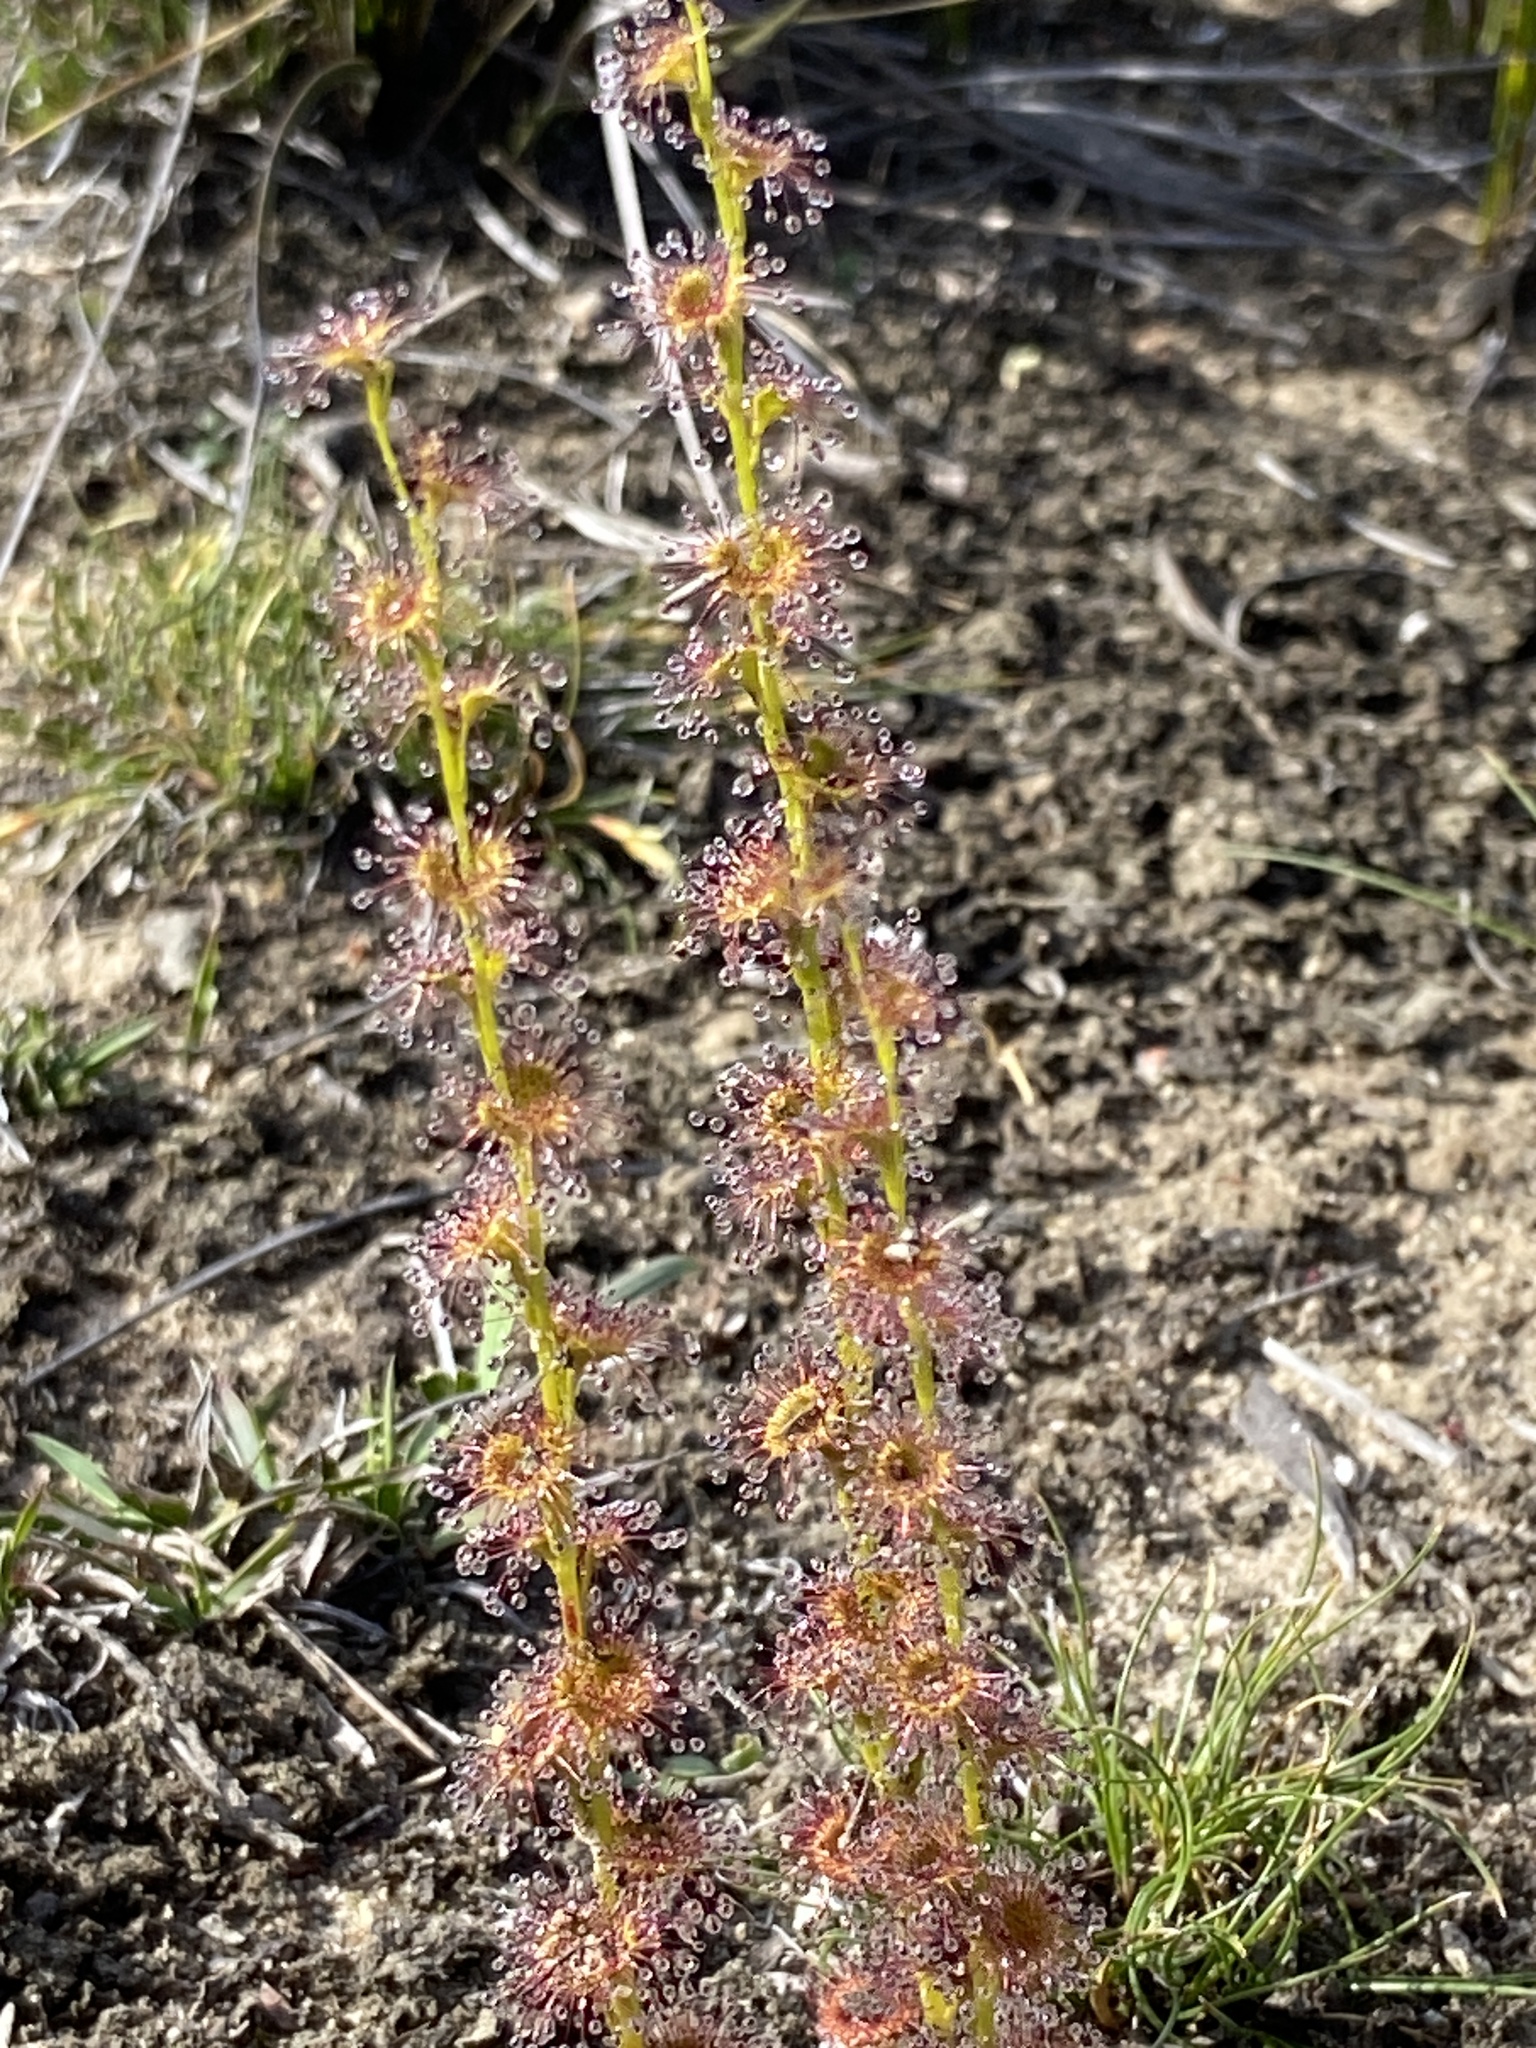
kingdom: Plantae
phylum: Tracheophyta
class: Magnoliopsida
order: Caryophyllales
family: Droseraceae
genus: Drosera
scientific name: Drosera platypoda
